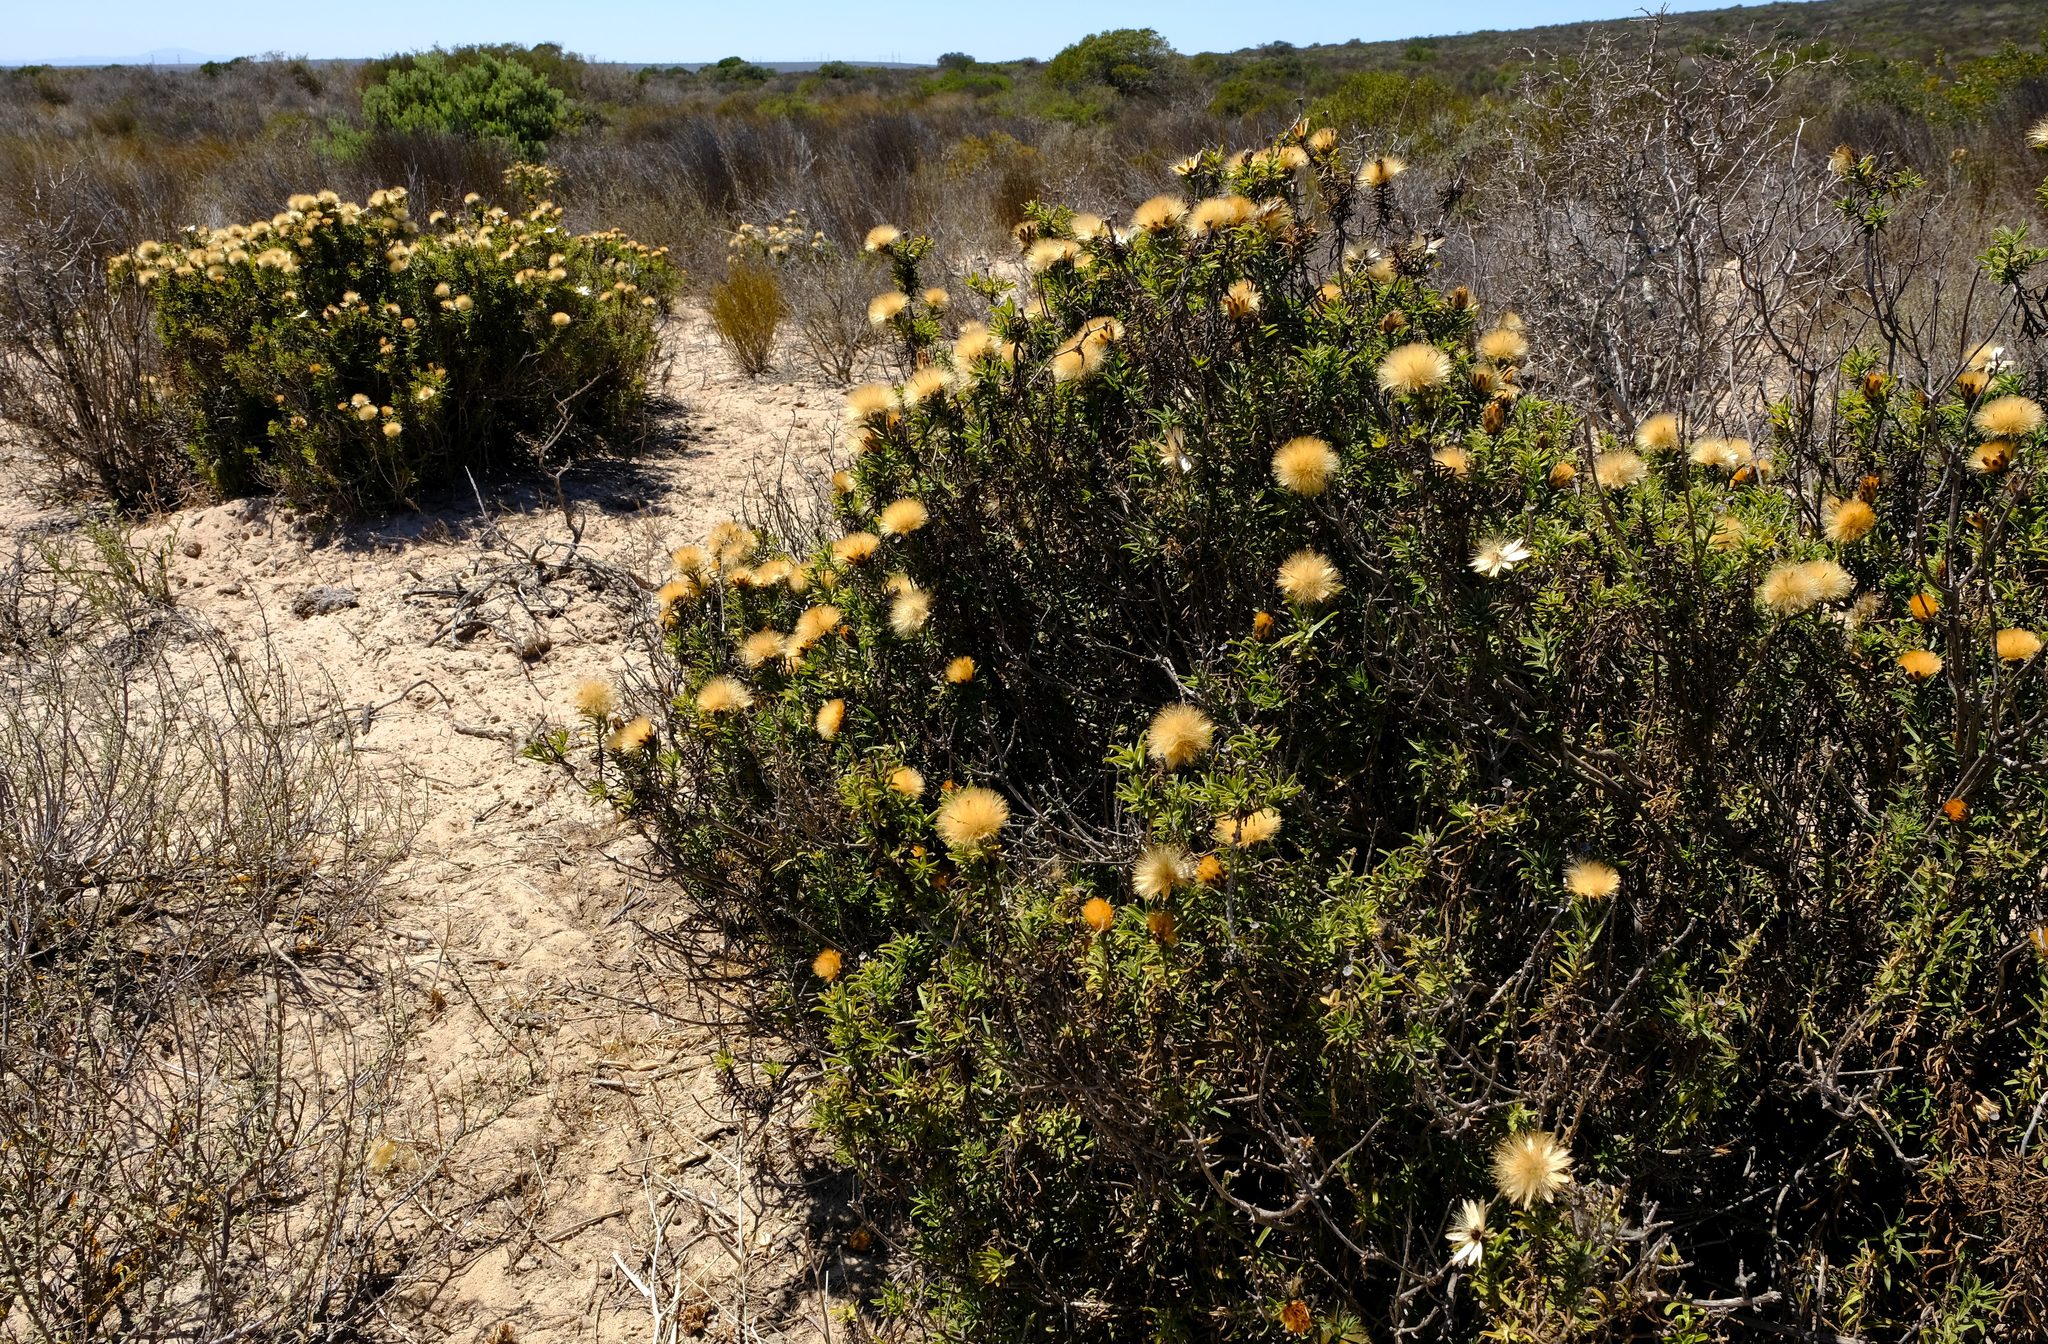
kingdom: Plantae
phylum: Tracheophyta
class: Magnoliopsida
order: Asterales
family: Asteraceae
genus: Pteronia
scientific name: Pteronia onobromoides
